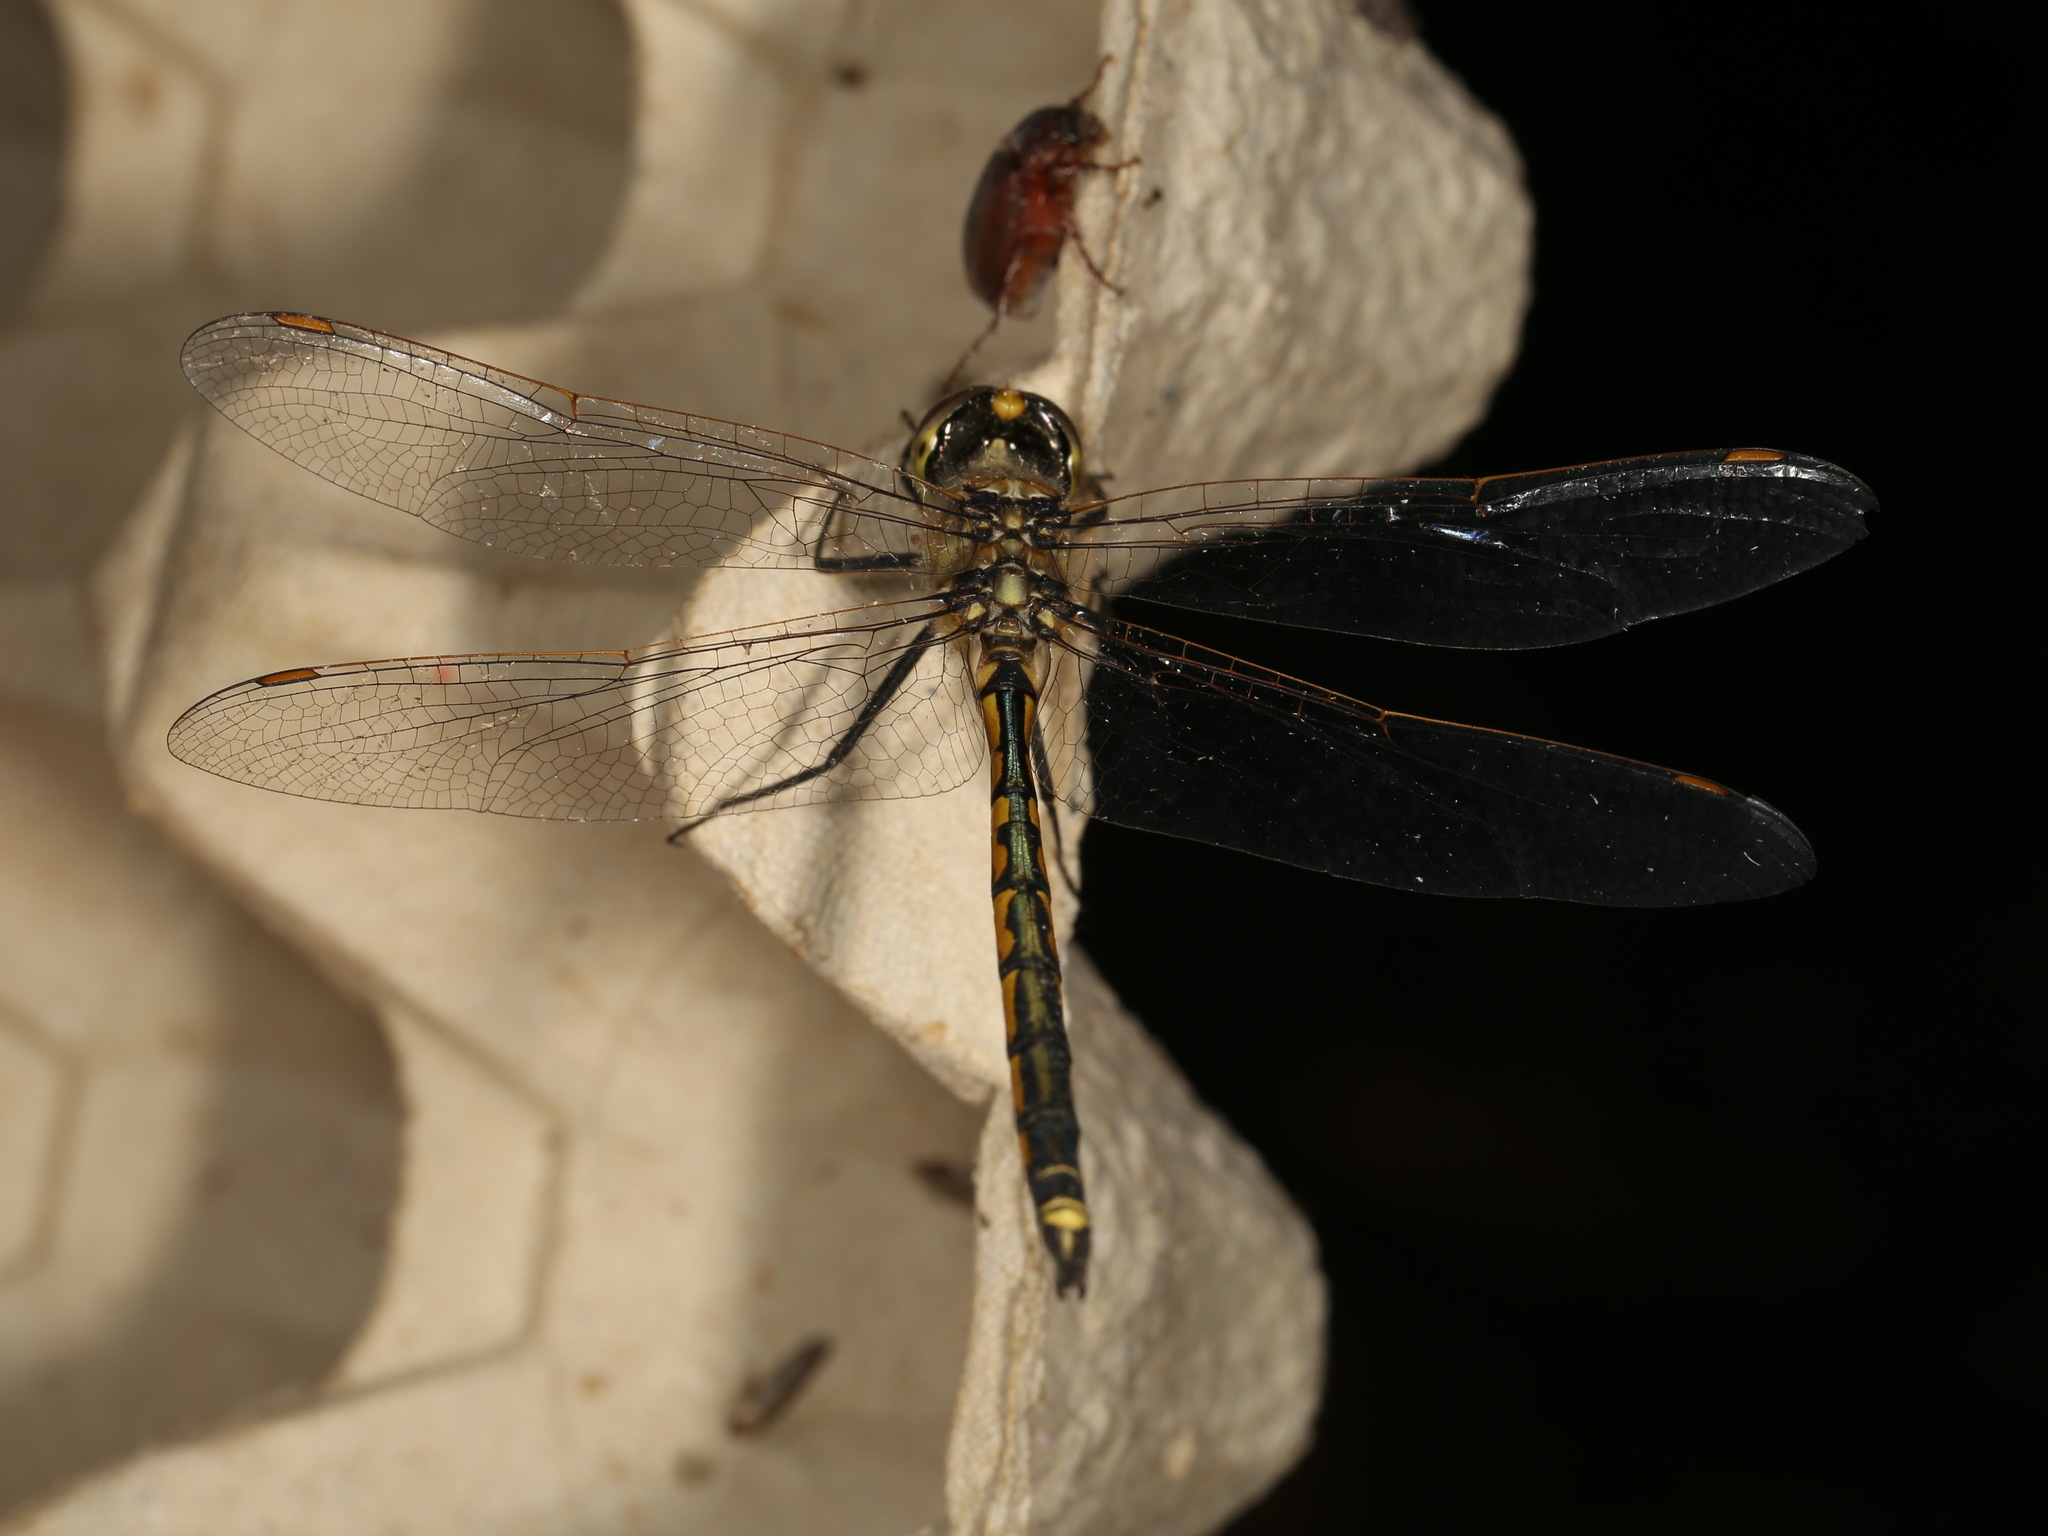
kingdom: Animalia
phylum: Arthropoda
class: Insecta
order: Odonata
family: Corduliidae
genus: Hemicordulia
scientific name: Hemicordulia tau
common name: Tau emerald
